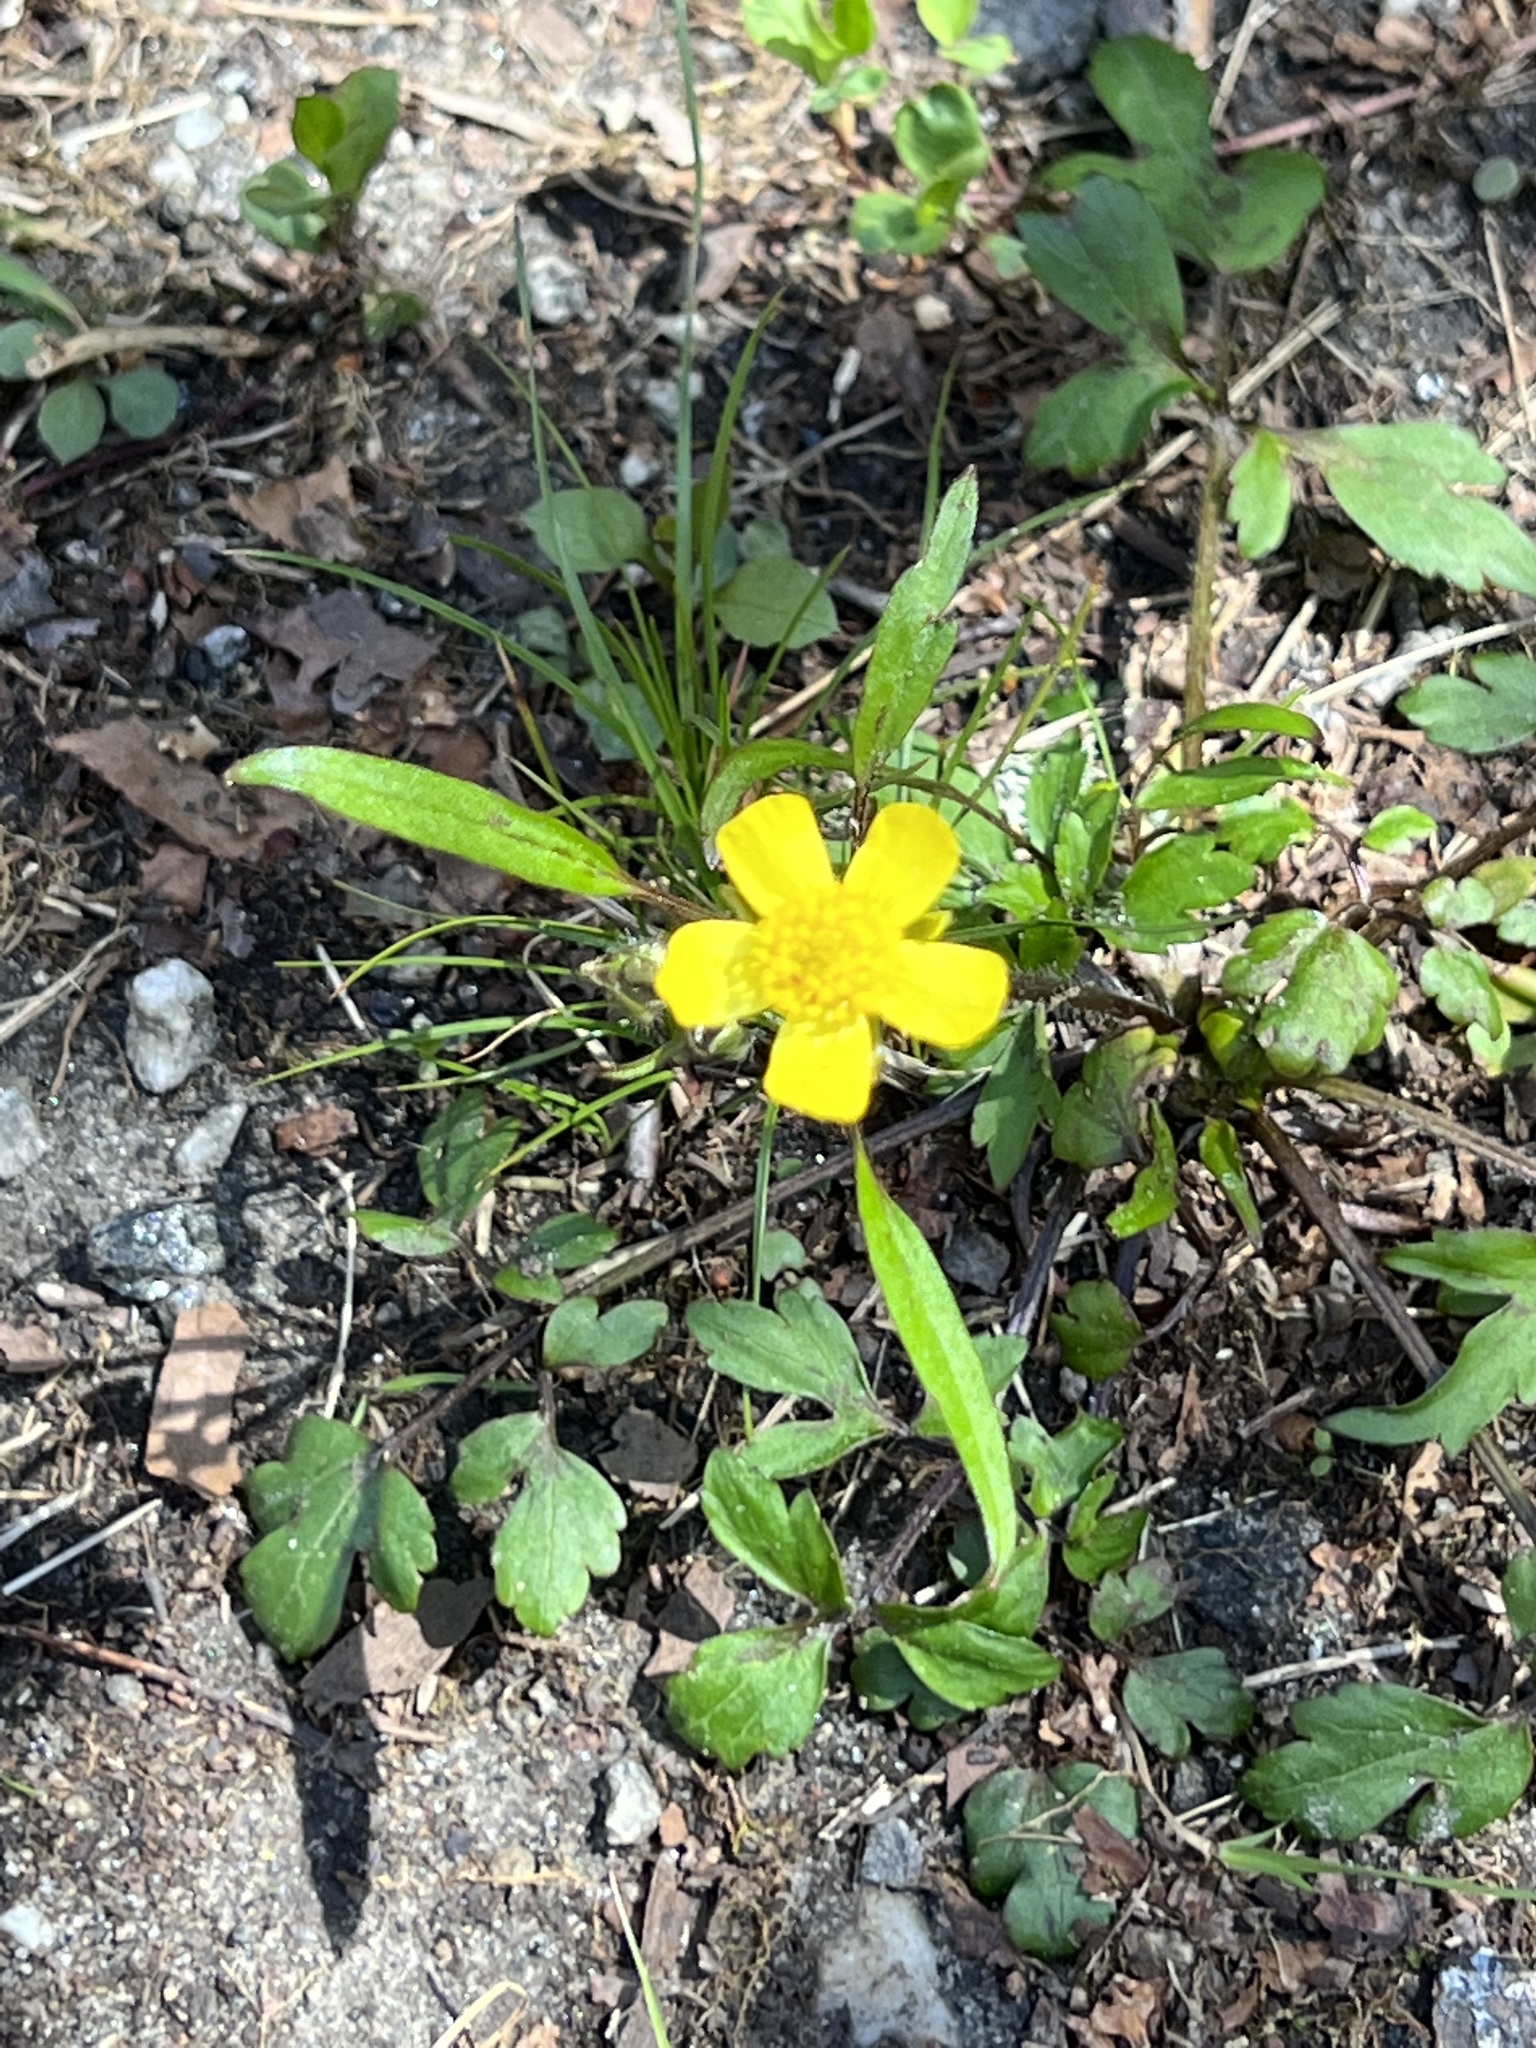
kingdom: Plantae
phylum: Tracheophyta
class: Magnoliopsida
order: Ranunculales
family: Ranunculaceae
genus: Ranunculus
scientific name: Ranunculus hispidus
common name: Bristly buttercup
